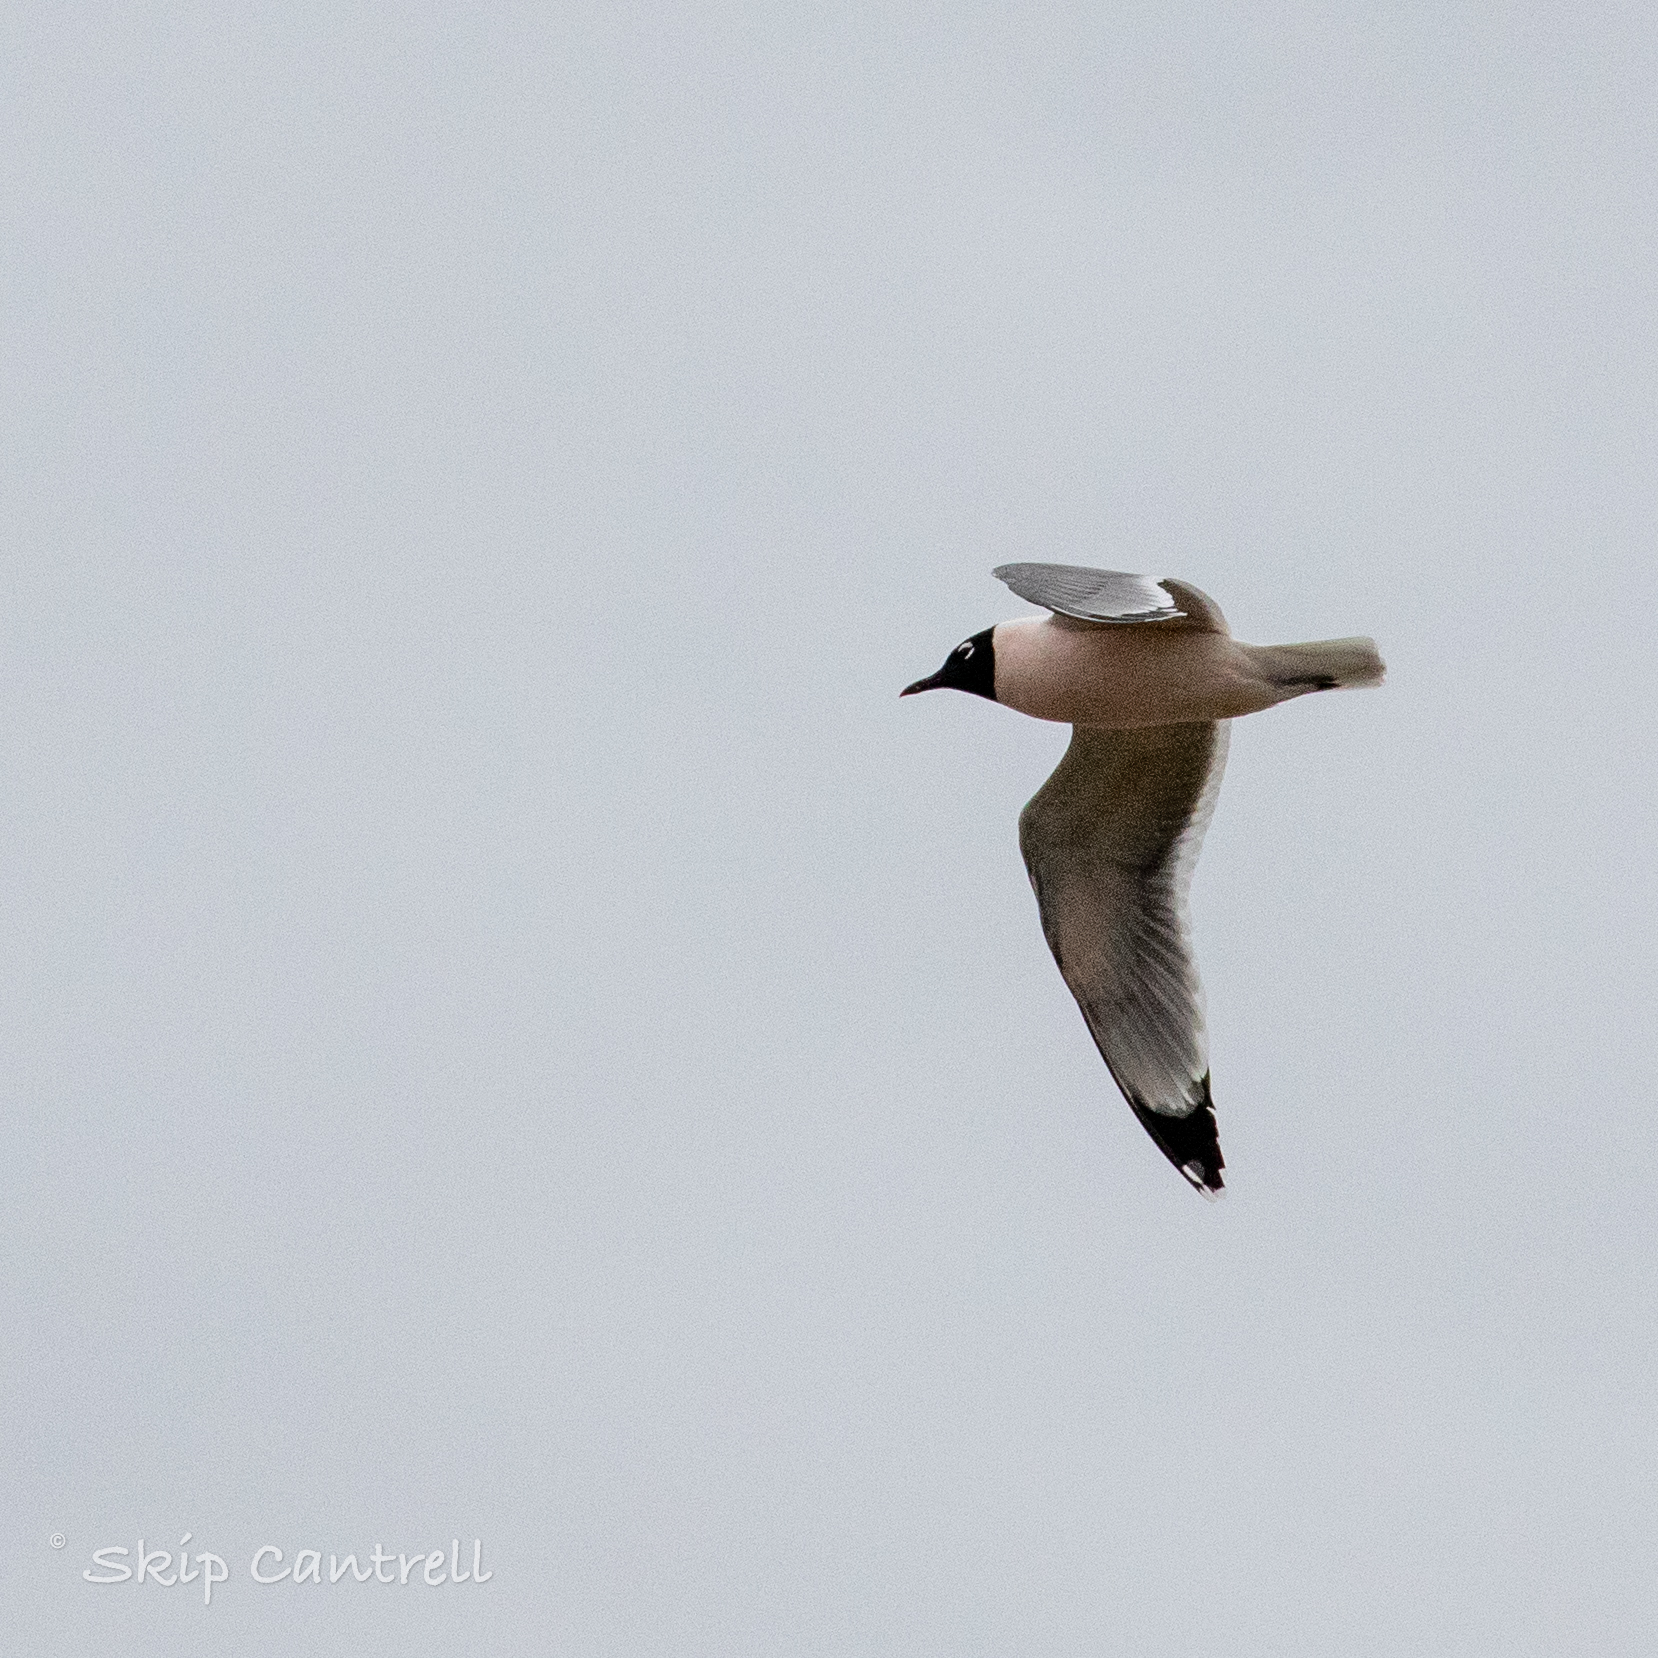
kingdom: Animalia
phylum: Chordata
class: Aves
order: Charadriiformes
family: Laridae
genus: Leucophaeus
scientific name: Leucophaeus pipixcan
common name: Franklin's gull
